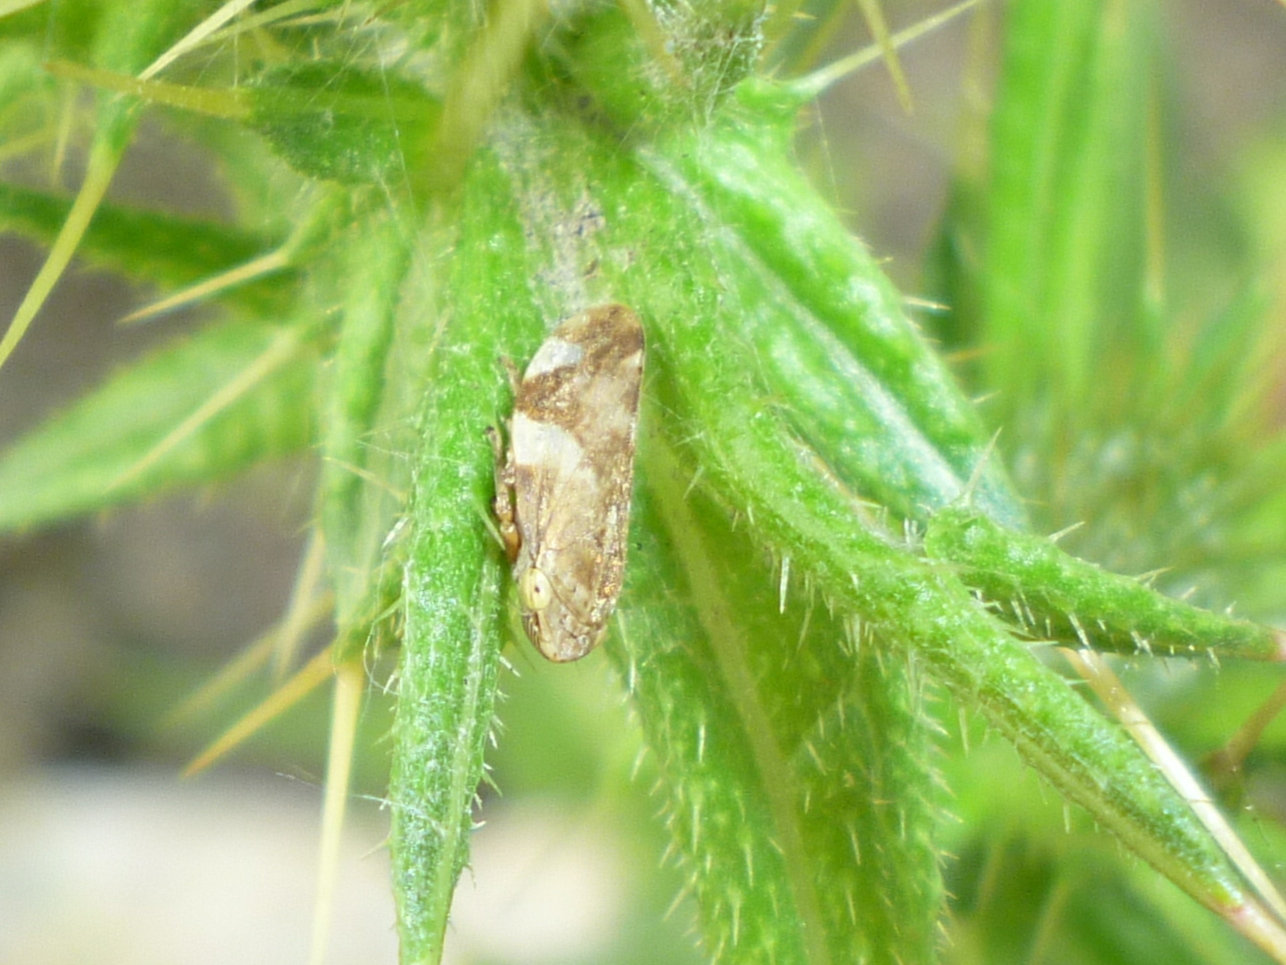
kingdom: Animalia
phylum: Arthropoda
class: Insecta
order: Hemiptera
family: Aphrophoridae
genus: Philaenus
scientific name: Philaenus spumarius
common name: Meadow spittlebug
